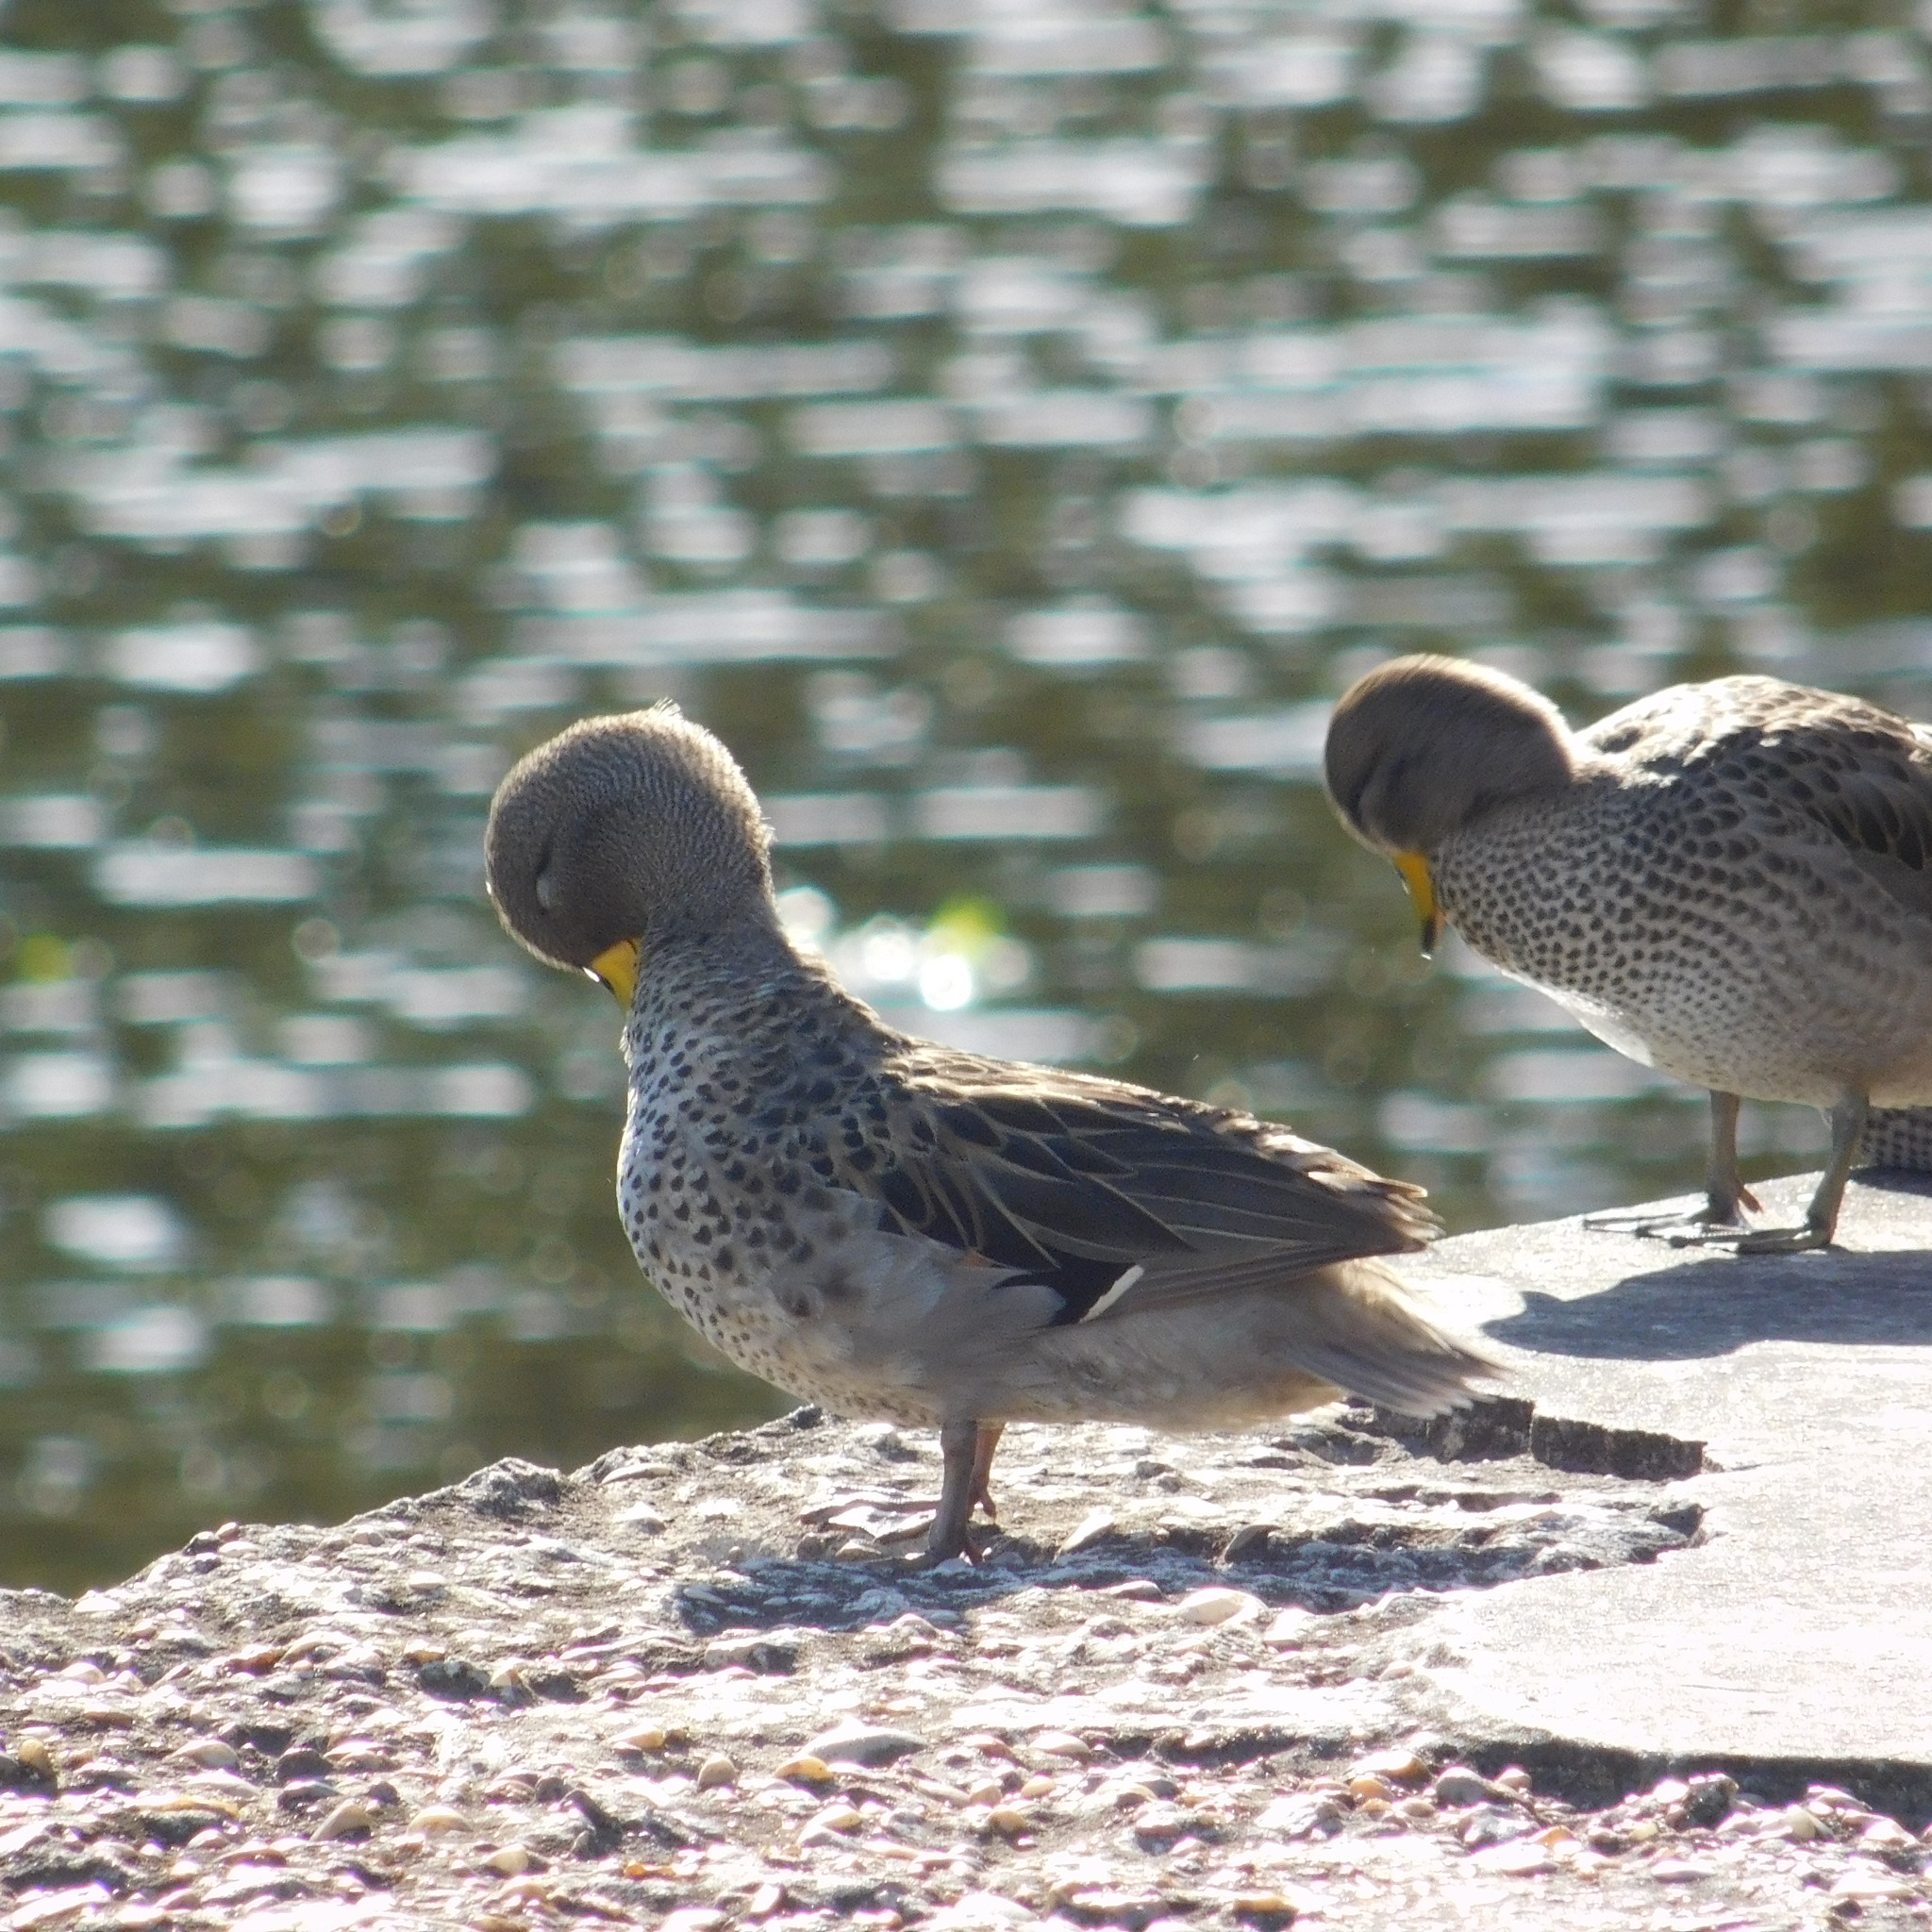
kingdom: Animalia
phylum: Chordata
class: Aves
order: Anseriformes
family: Anatidae
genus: Anas
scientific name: Anas flavirostris
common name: Yellow-billed teal
